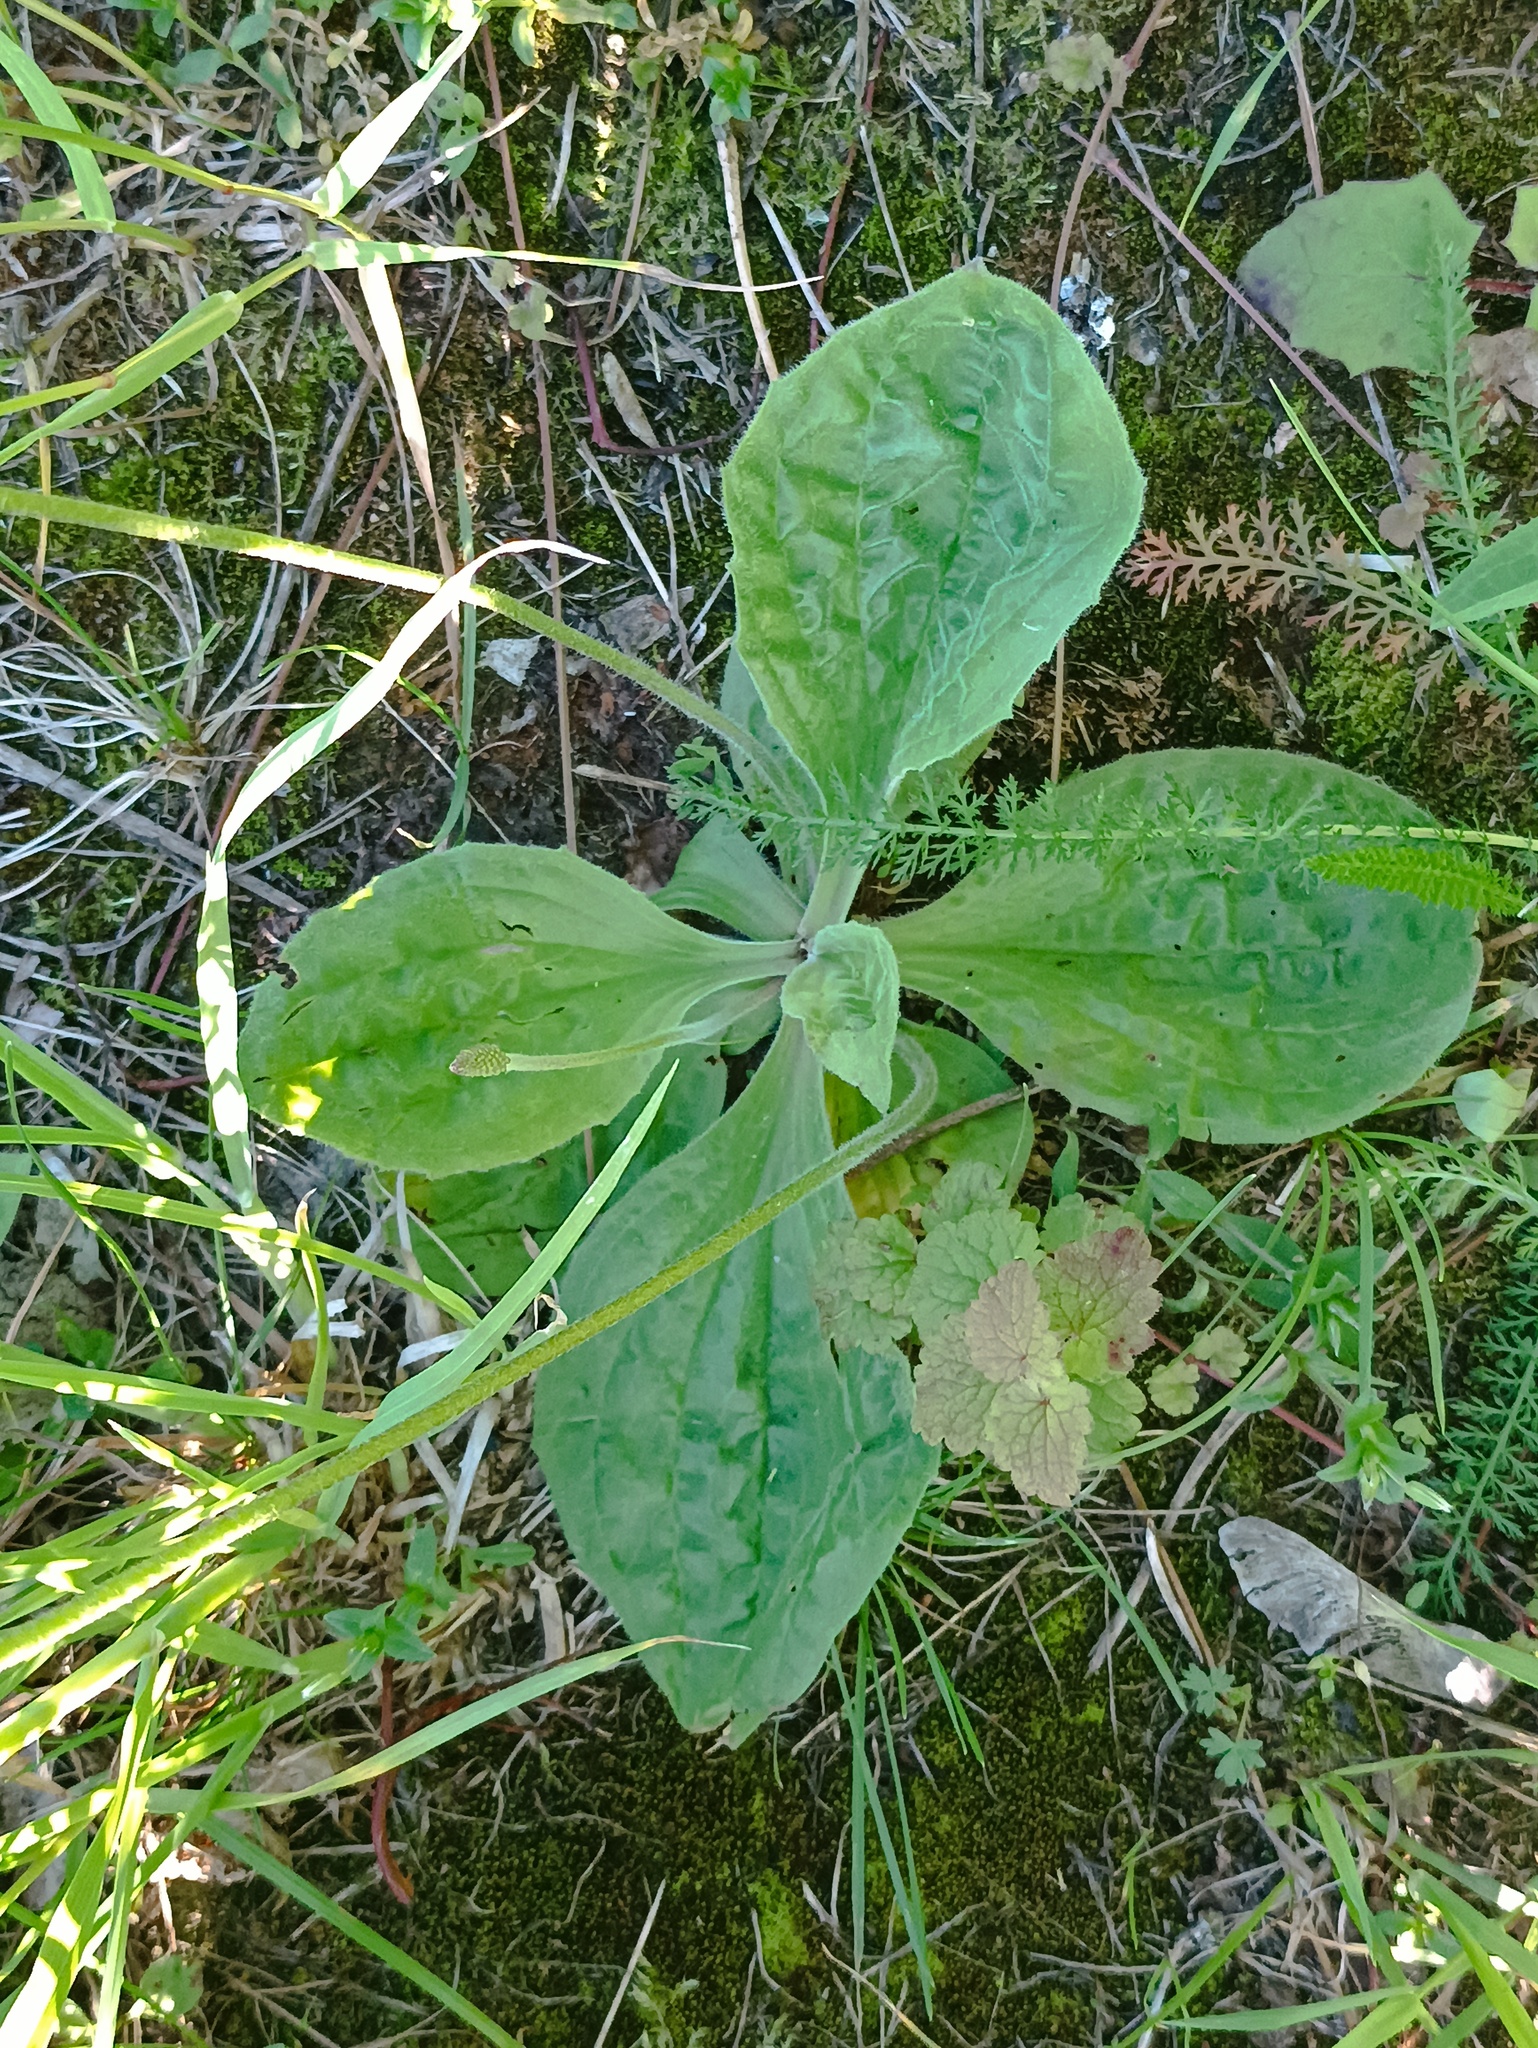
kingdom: Plantae
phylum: Tracheophyta
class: Magnoliopsida
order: Lamiales
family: Plantaginaceae
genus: Plantago
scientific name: Plantago media
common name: Hoary plantain
